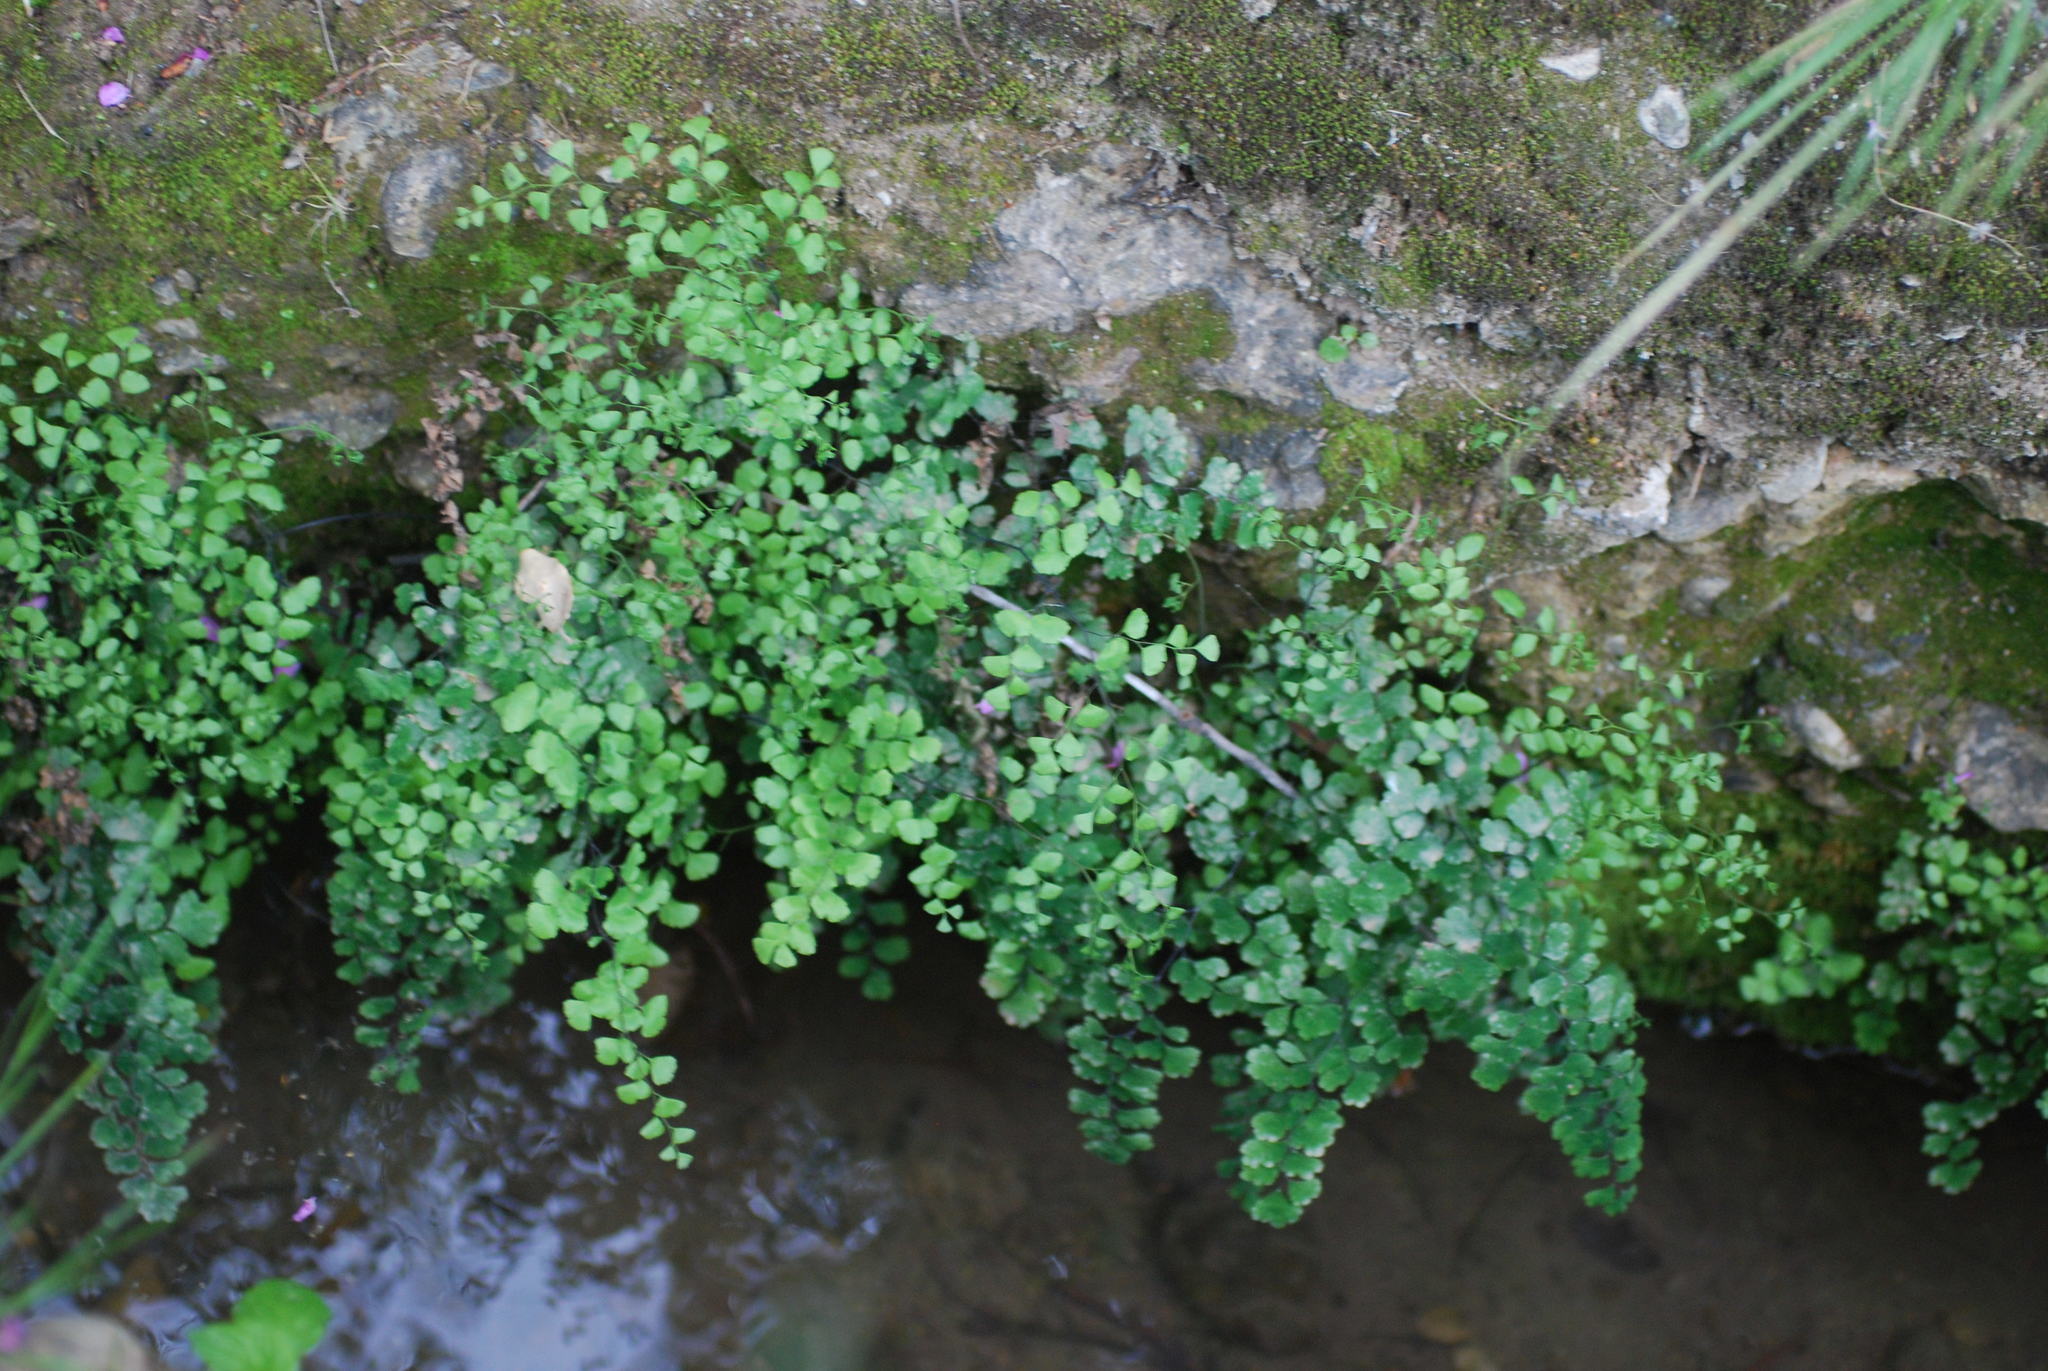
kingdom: Plantae
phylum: Tracheophyta
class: Polypodiopsida
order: Polypodiales
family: Pteridaceae
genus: Adiantum
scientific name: Adiantum capillus-veneris
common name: Maidenhair fern
